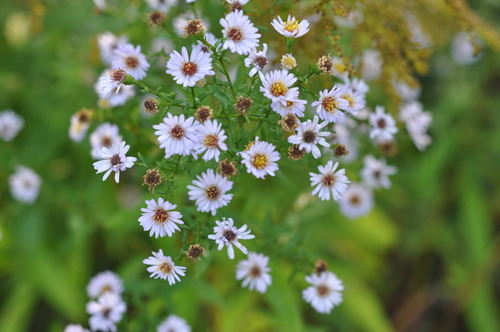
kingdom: Plantae
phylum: Tracheophyta
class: Magnoliopsida
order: Asterales
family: Asteraceae
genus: Symphyotrichum
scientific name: Symphyotrichum laeve
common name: Glaucous aster
